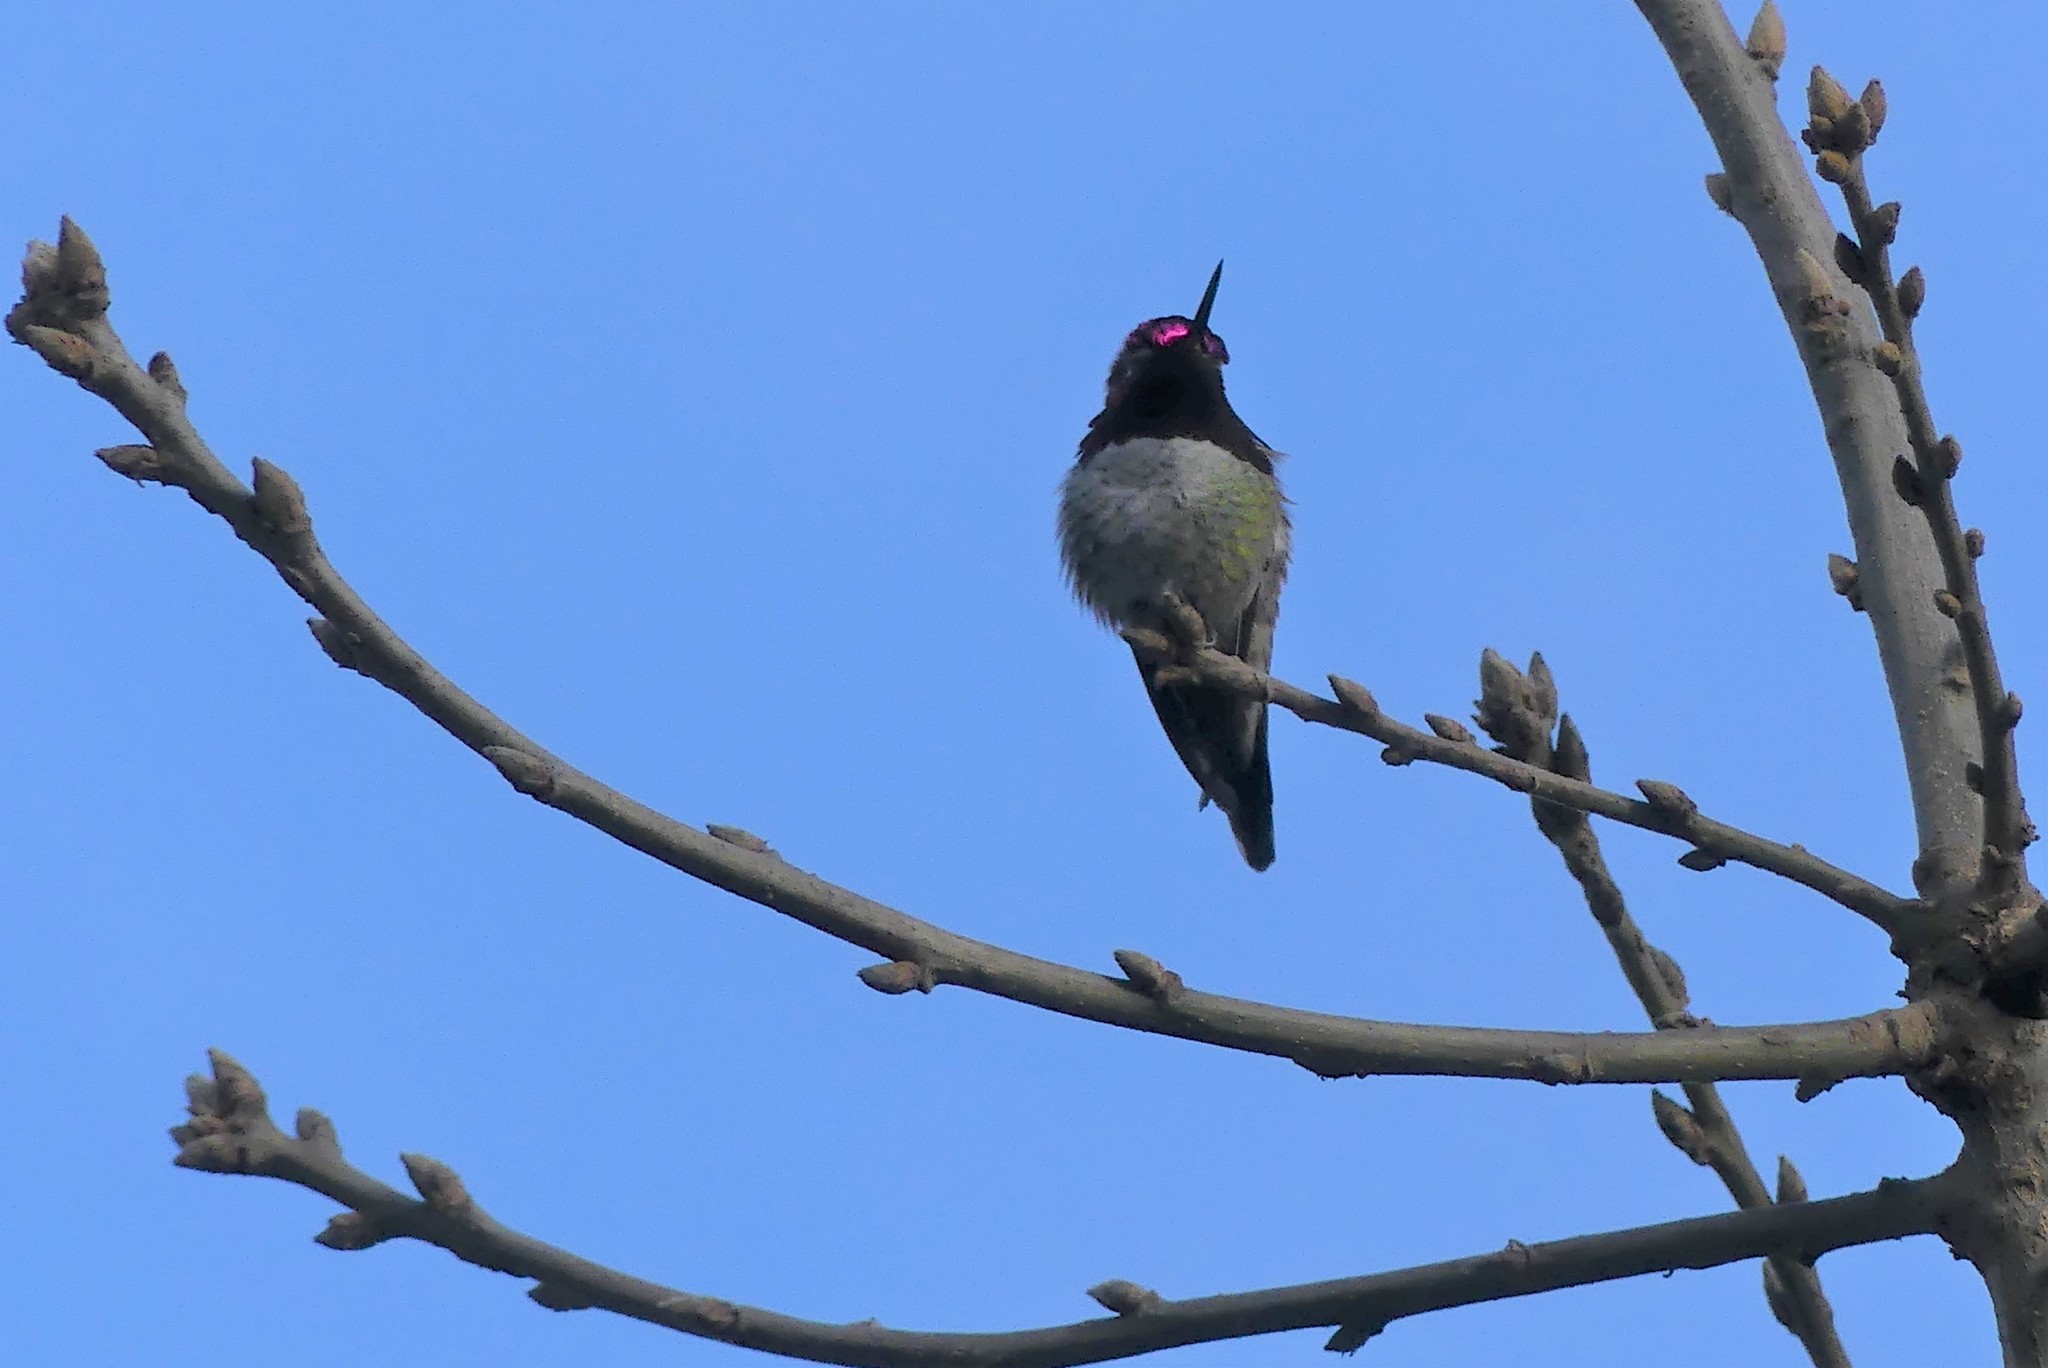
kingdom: Animalia
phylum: Chordata
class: Aves
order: Apodiformes
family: Trochilidae
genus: Calypte
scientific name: Calypte anna
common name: Anna's hummingbird
